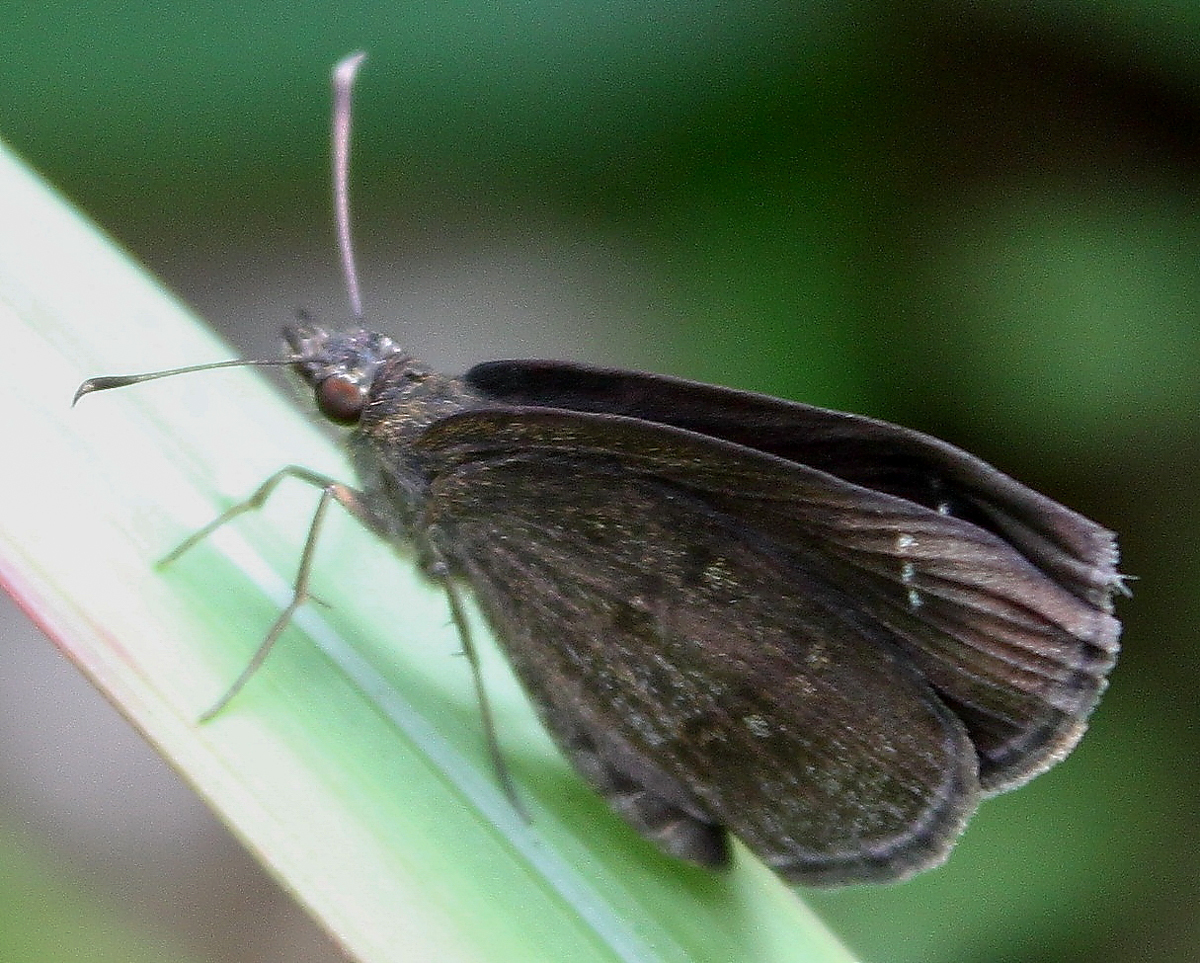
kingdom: Animalia
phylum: Arthropoda
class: Insecta
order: Lepidoptera
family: Hesperiidae
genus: Astictopterus
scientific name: Astictopterus jama
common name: Forest hopper
